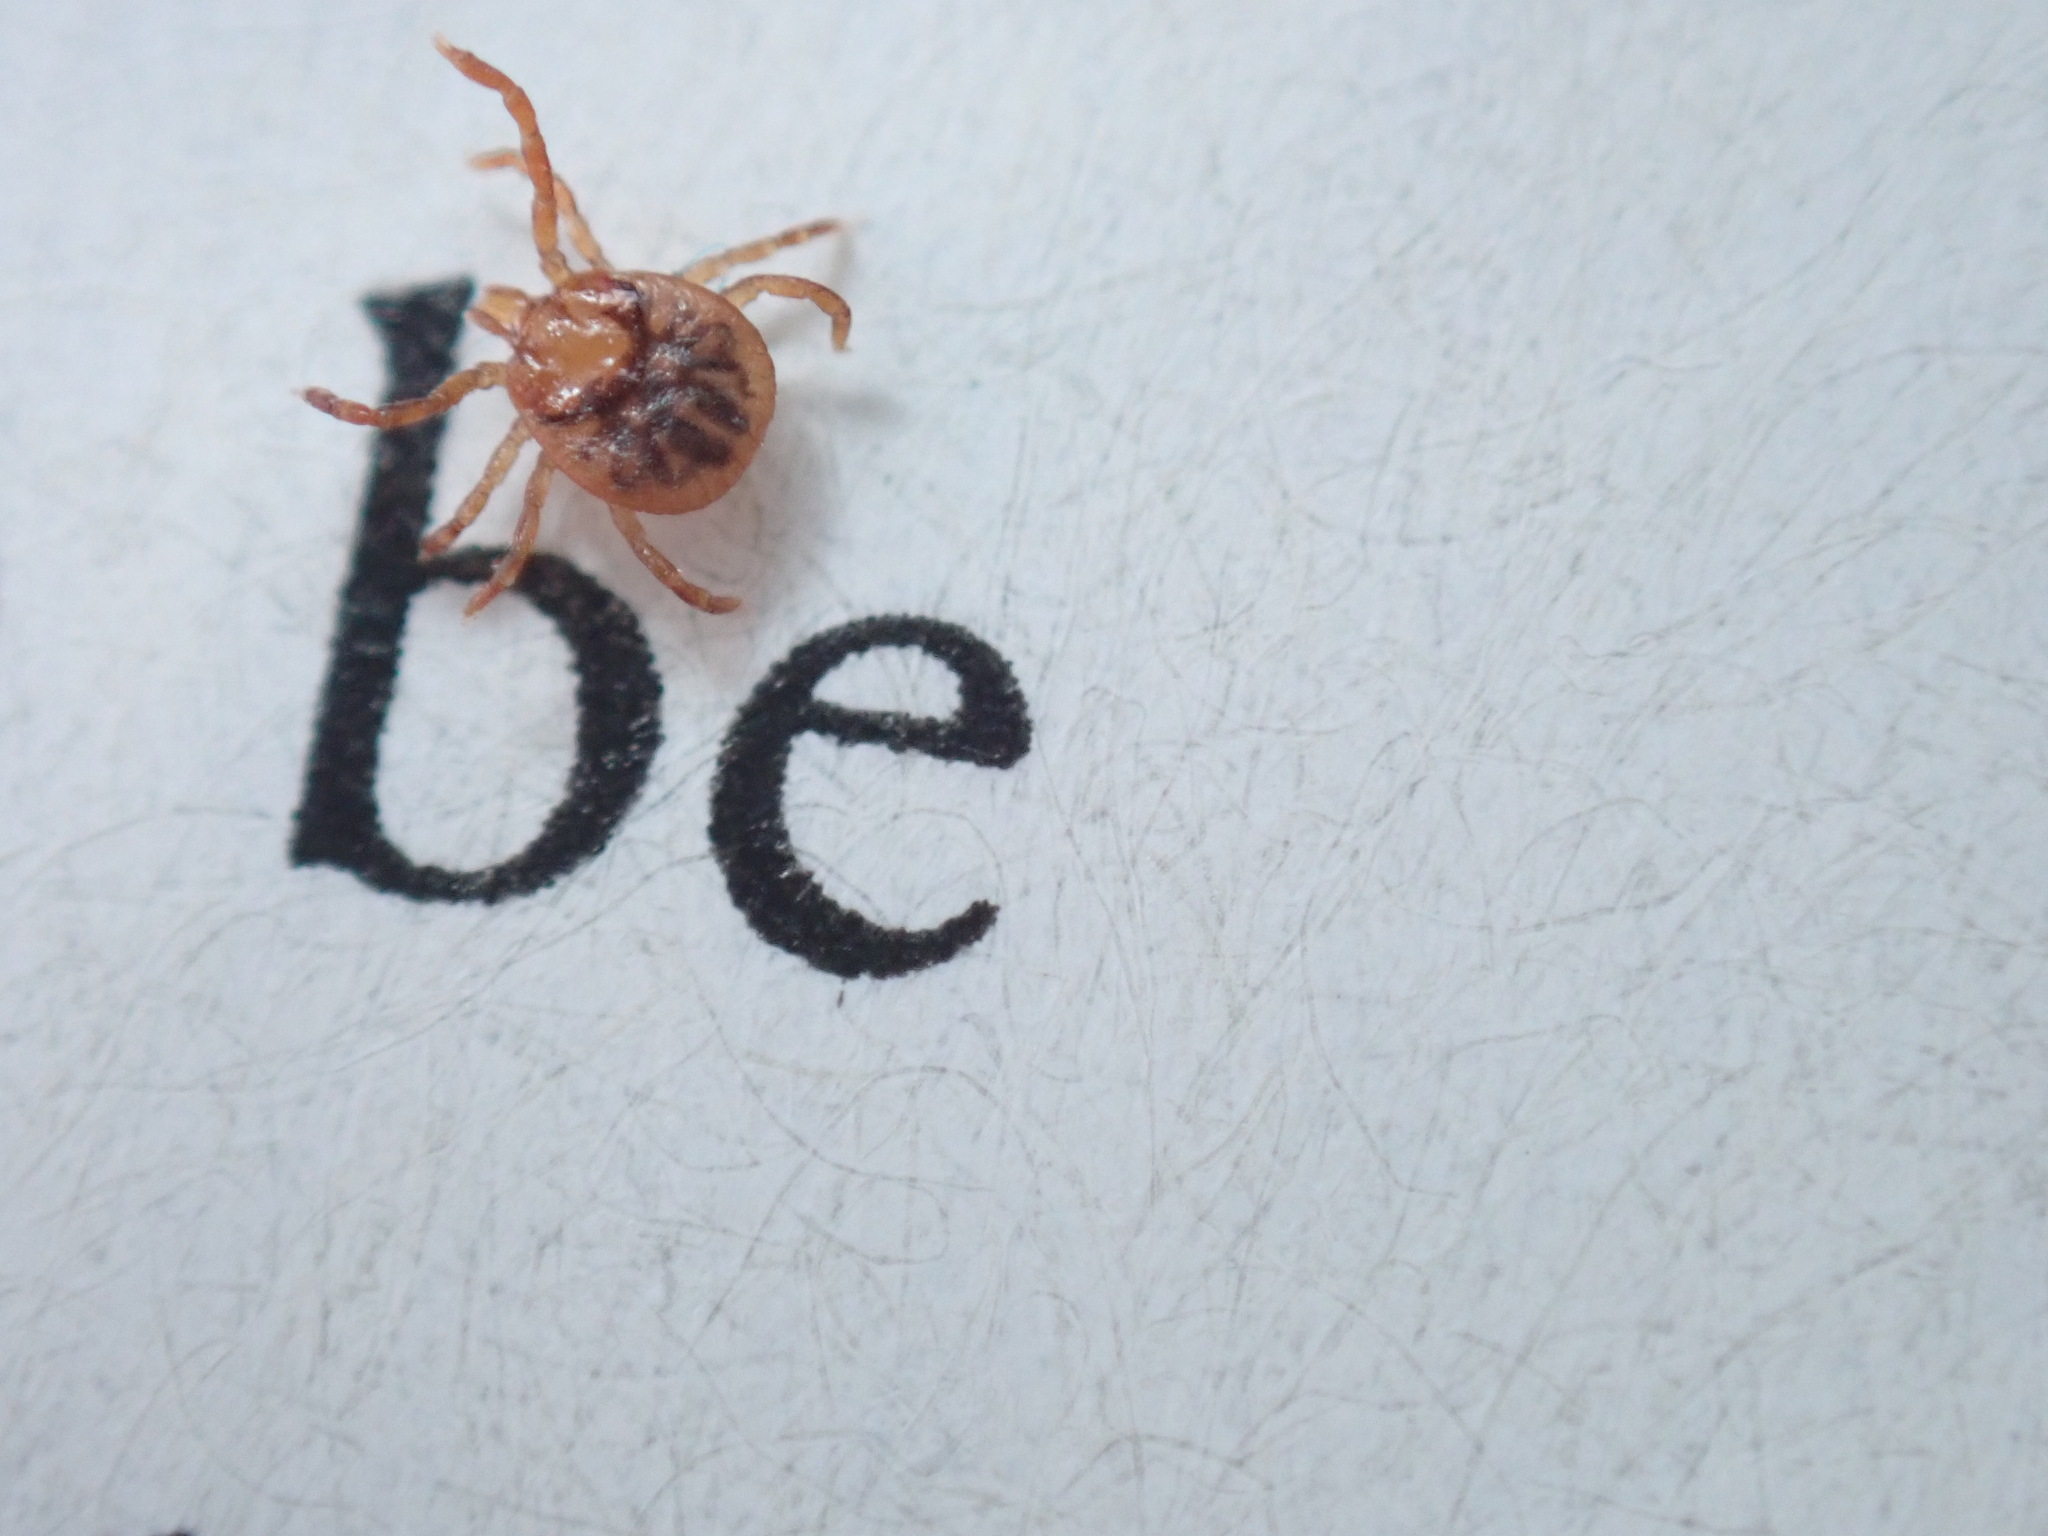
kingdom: Animalia
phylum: Arthropoda
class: Arachnida
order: Ixodida
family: Ixodidae
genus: Amblyomma
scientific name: Amblyomma americanum
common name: Lone star tick
